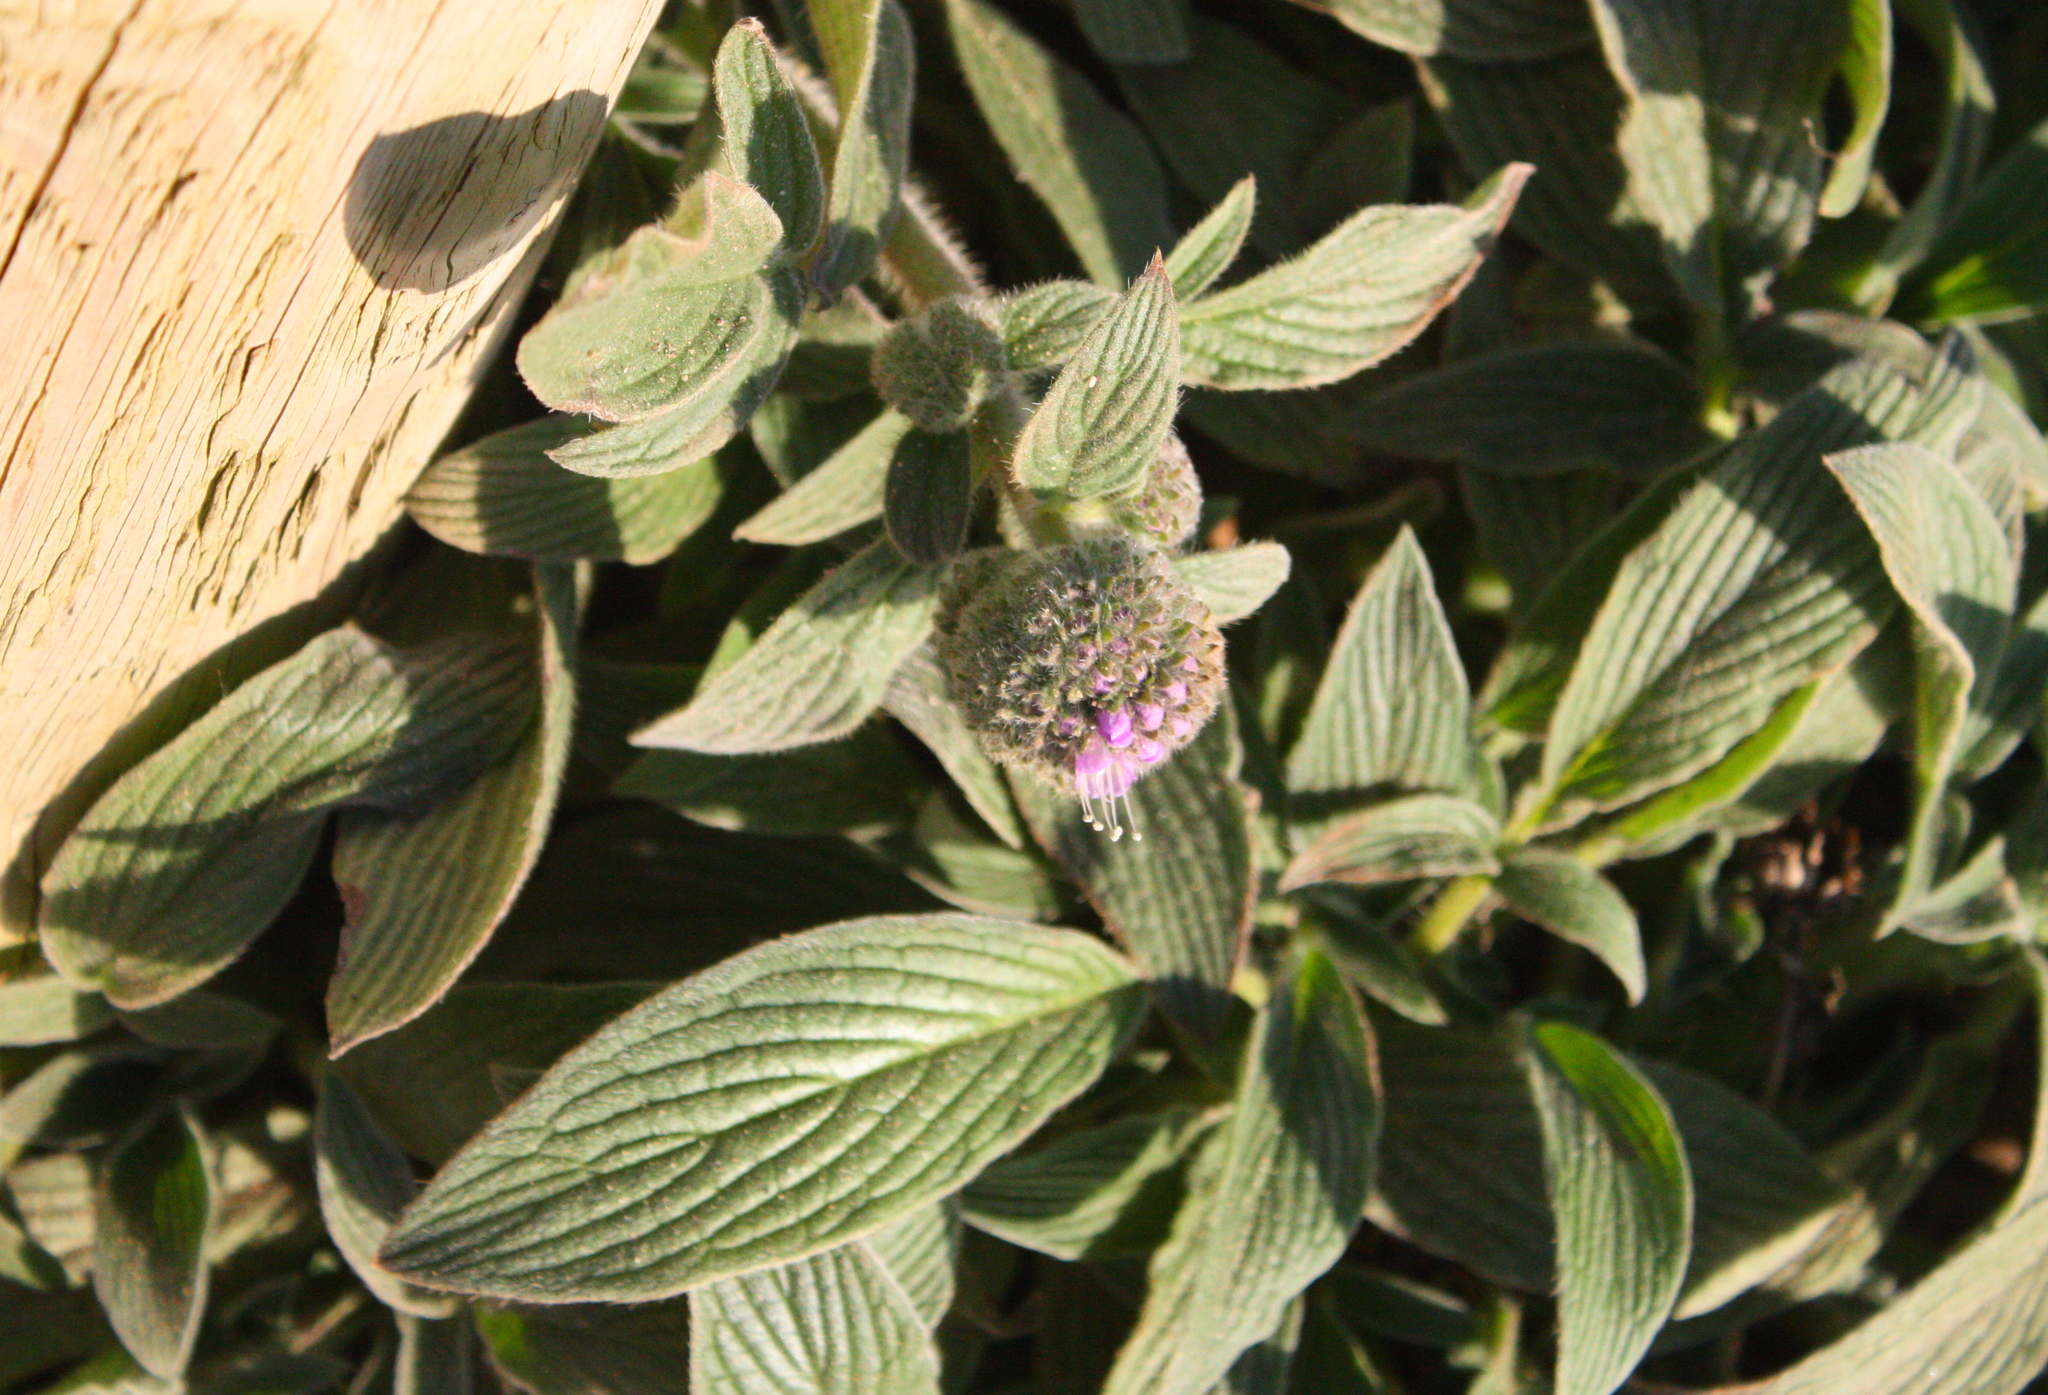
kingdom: Plantae
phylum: Tracheophyta
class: Magnoliopsida
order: Boraginales
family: Hydrophyllaceae
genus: Phacelia
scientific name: Phacelia californica
